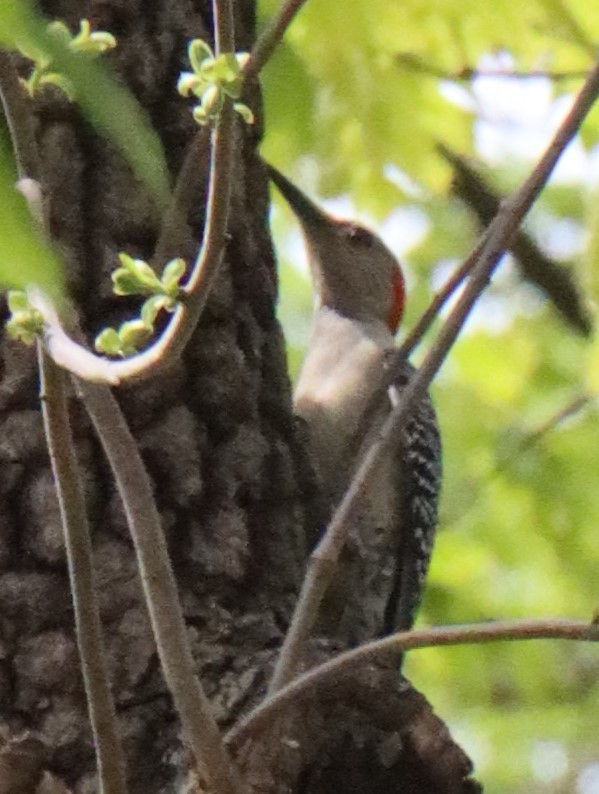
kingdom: Animalia
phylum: Chordata
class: Aves
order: Piciformes
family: Picidae
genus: Melanerpes
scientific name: Melanerpes carolinus
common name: Red-bellied woodpecker
